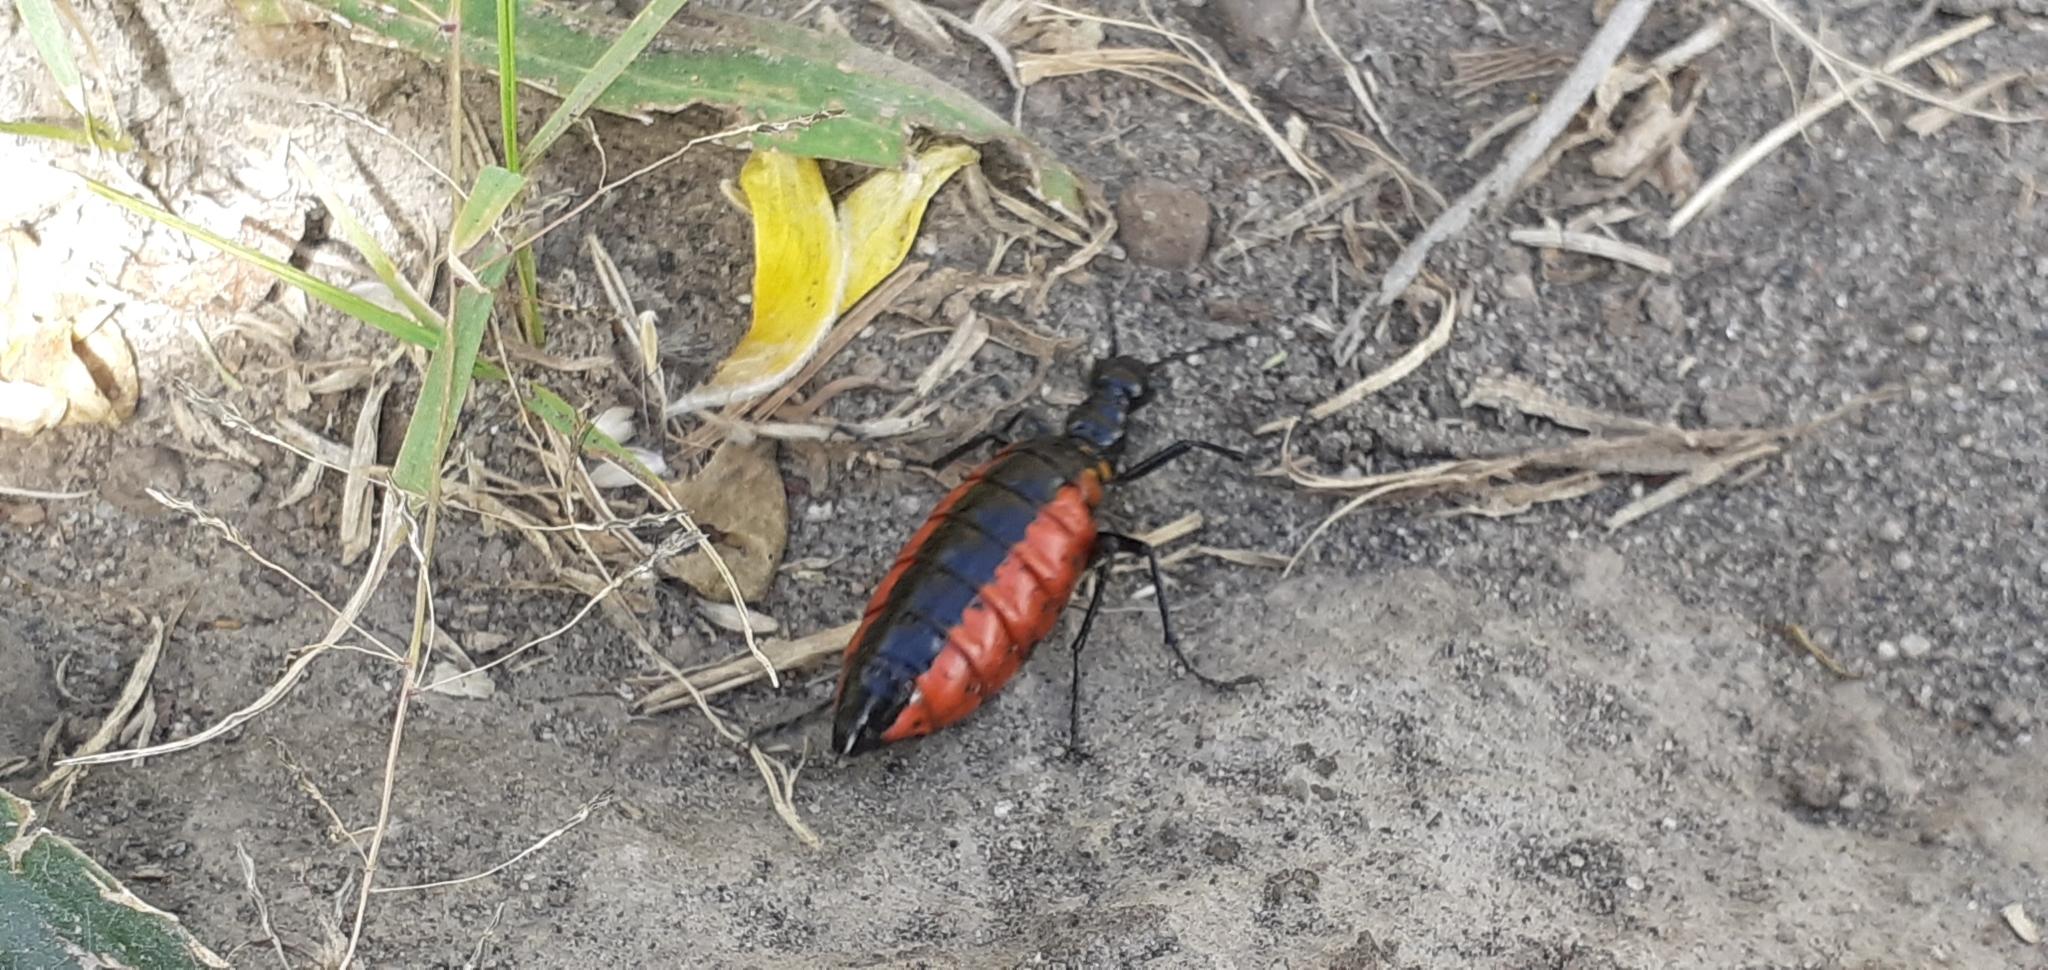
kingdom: Animalia
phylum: Arthropoda
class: Insecta
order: Coleoptera
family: Meloidae
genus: Pseudomeloe
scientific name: Pseudomeloe
